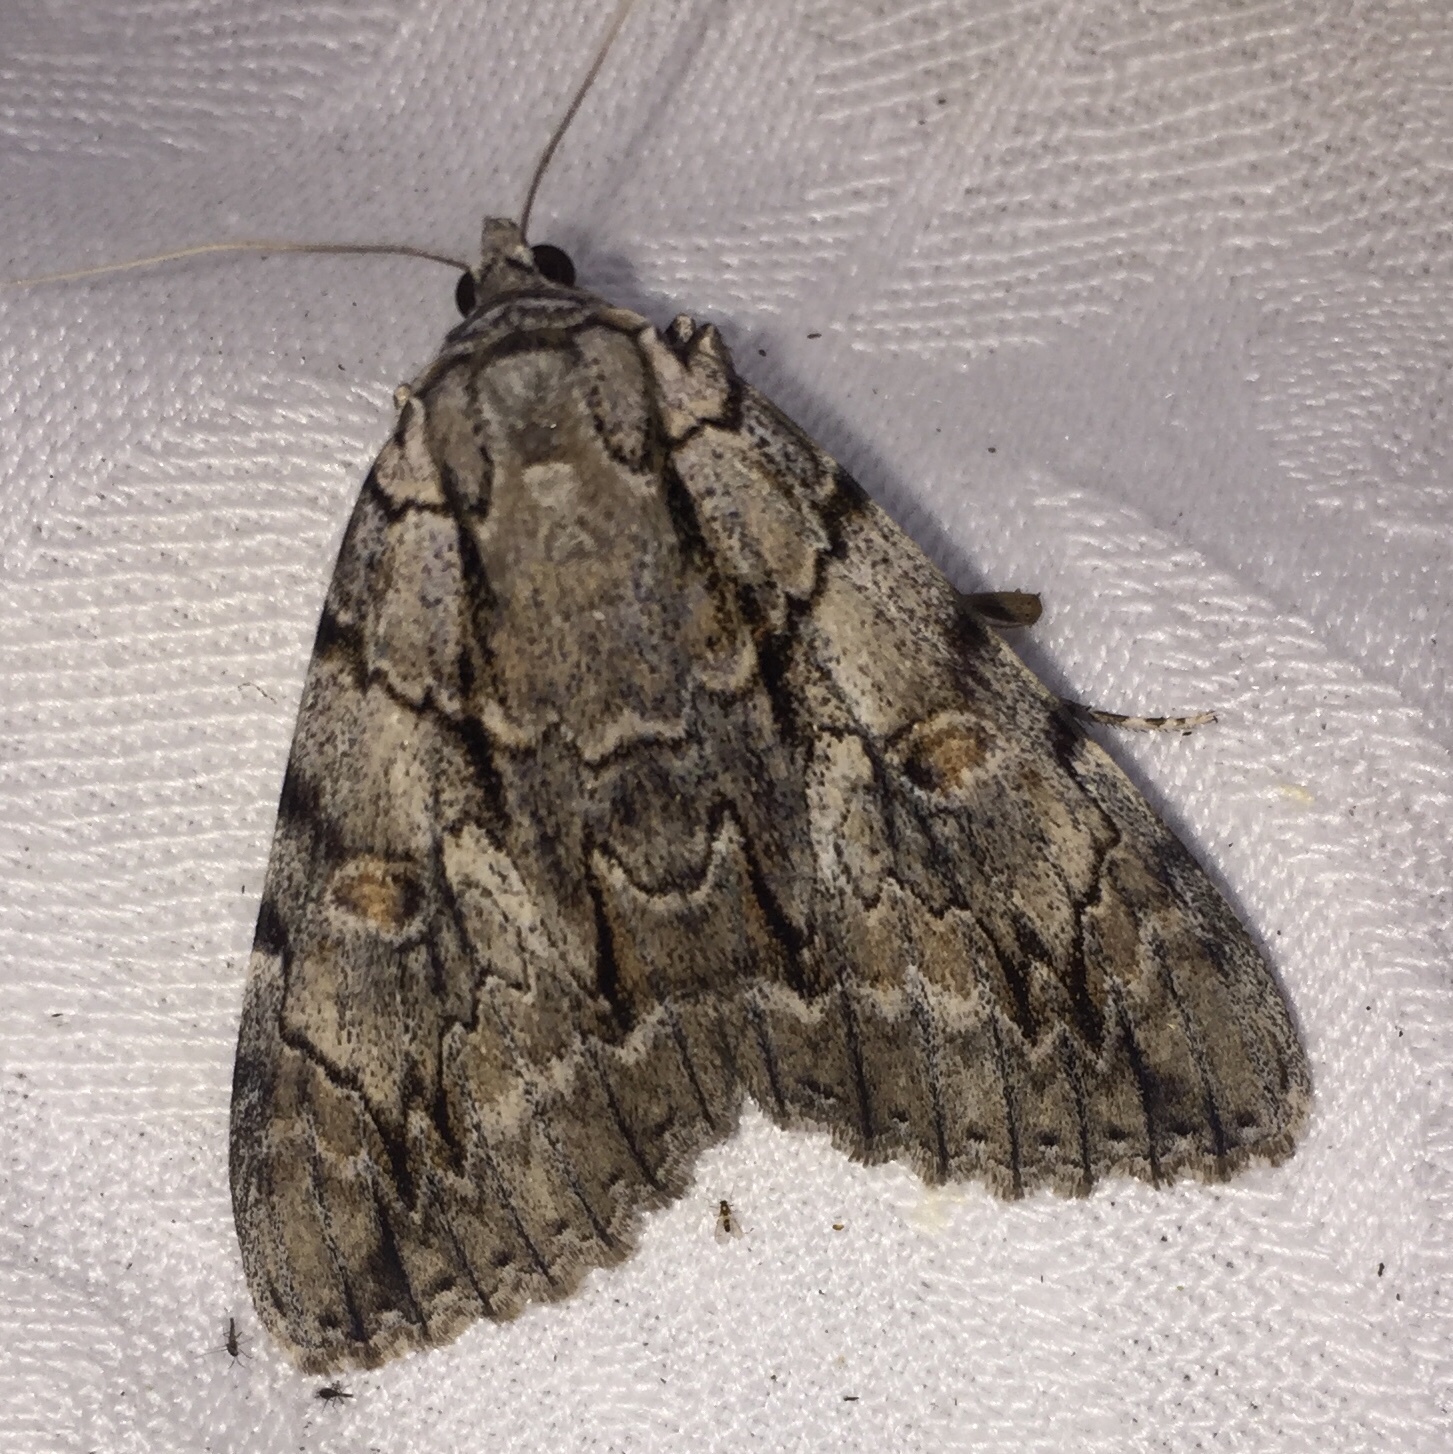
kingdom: Animalia
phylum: Arthropoda
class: Insecta
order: Lepidoptera
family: Erebidae
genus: Catocala
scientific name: Catocala retecta
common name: Yellow-gray underwing
